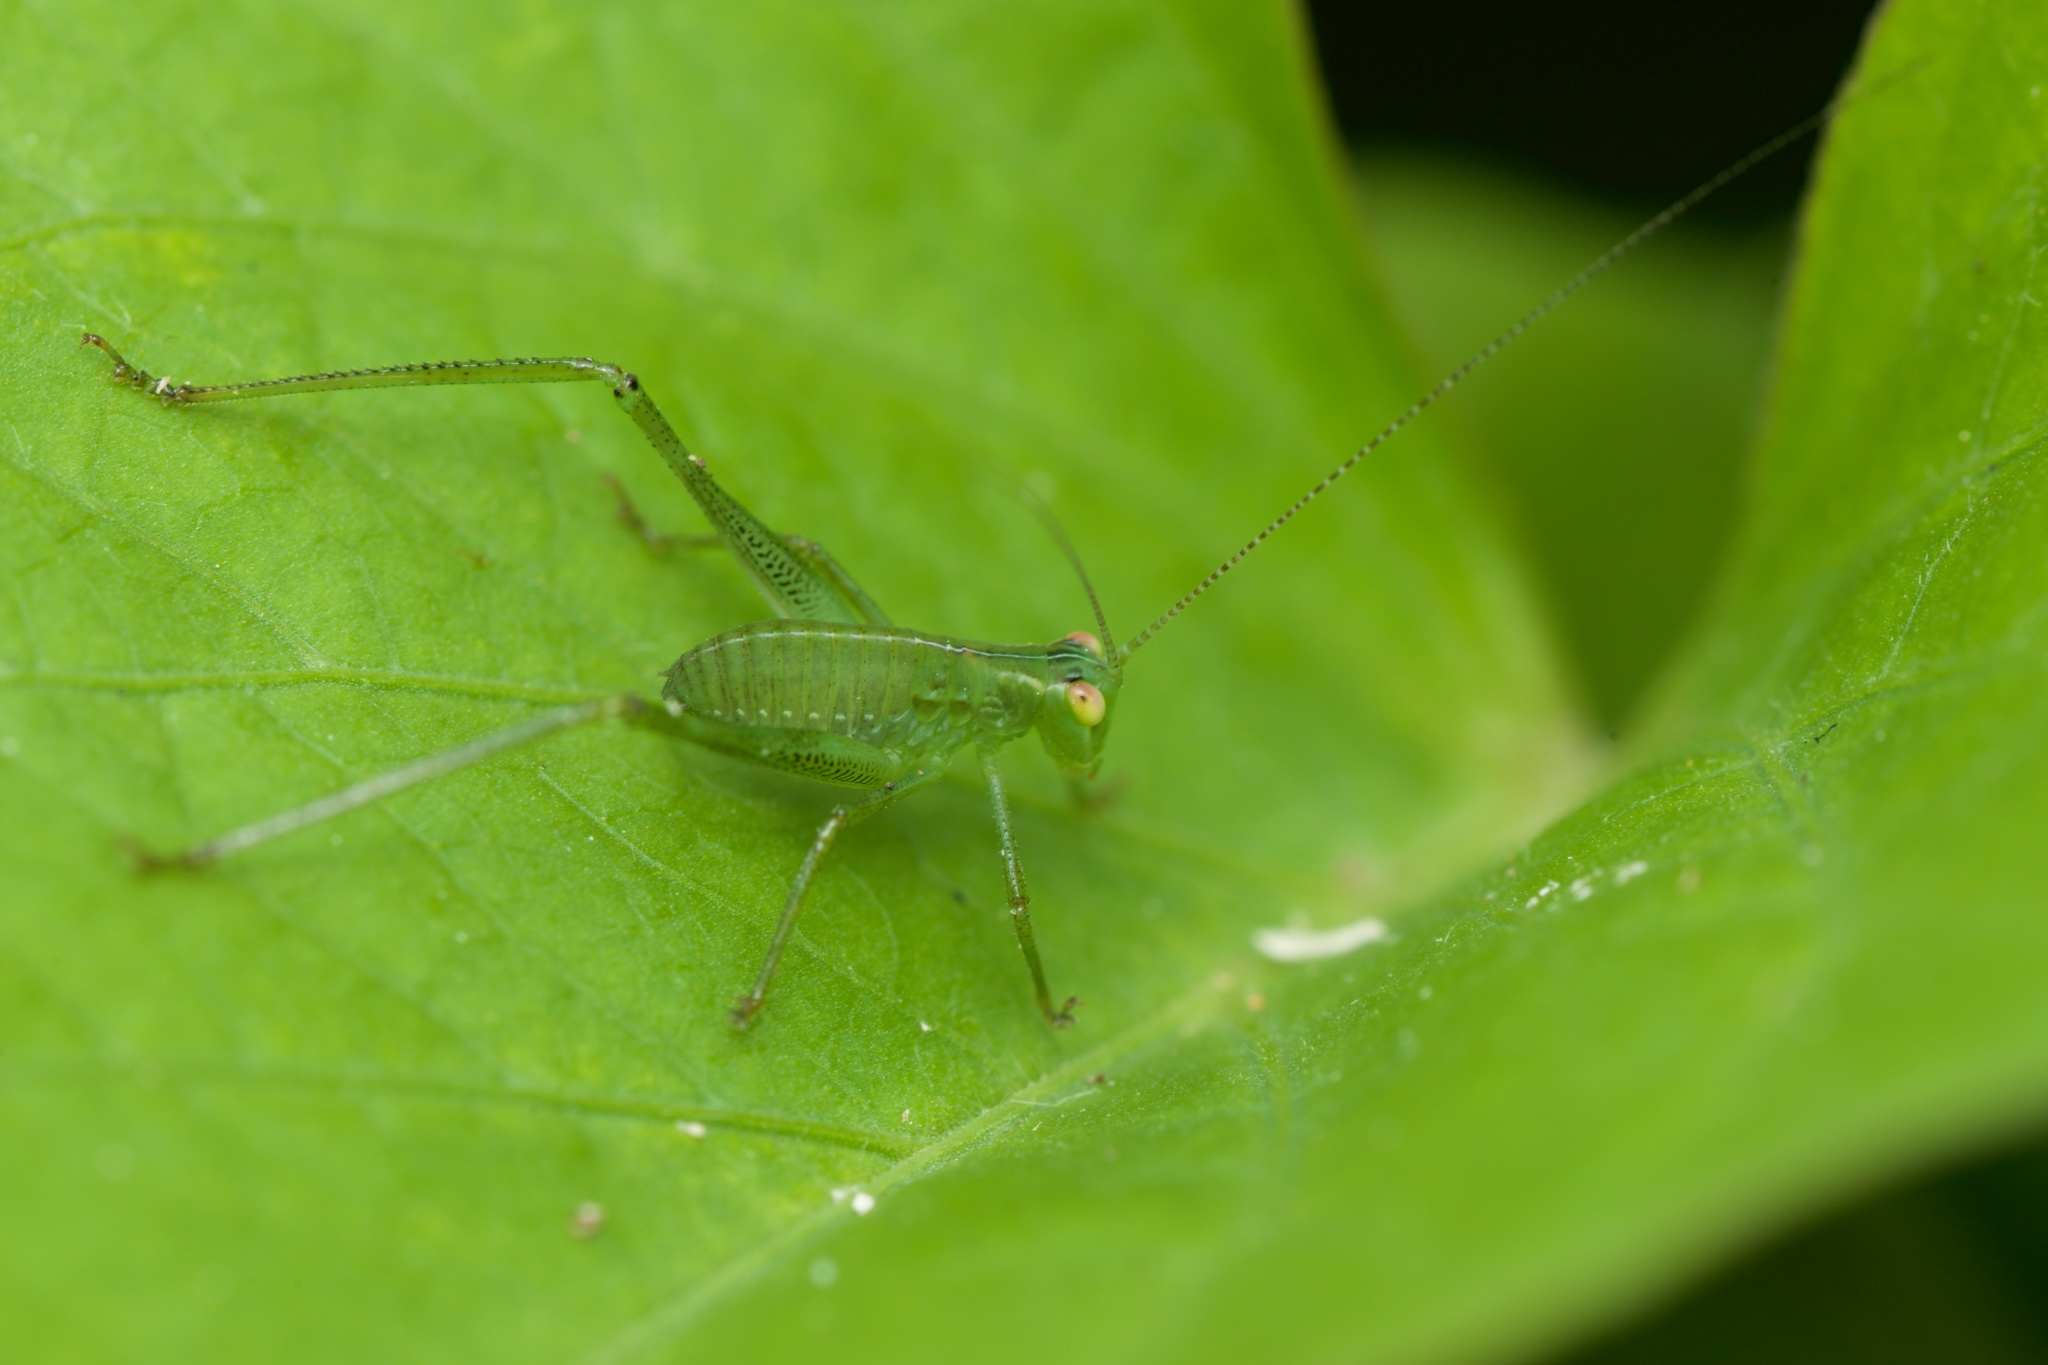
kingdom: Animalia
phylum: Arthropoda
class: Insecta
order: Orthoptera
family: Tettigoniidae
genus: Caedicia
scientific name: Caedicia simplex
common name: Common garden katydid
